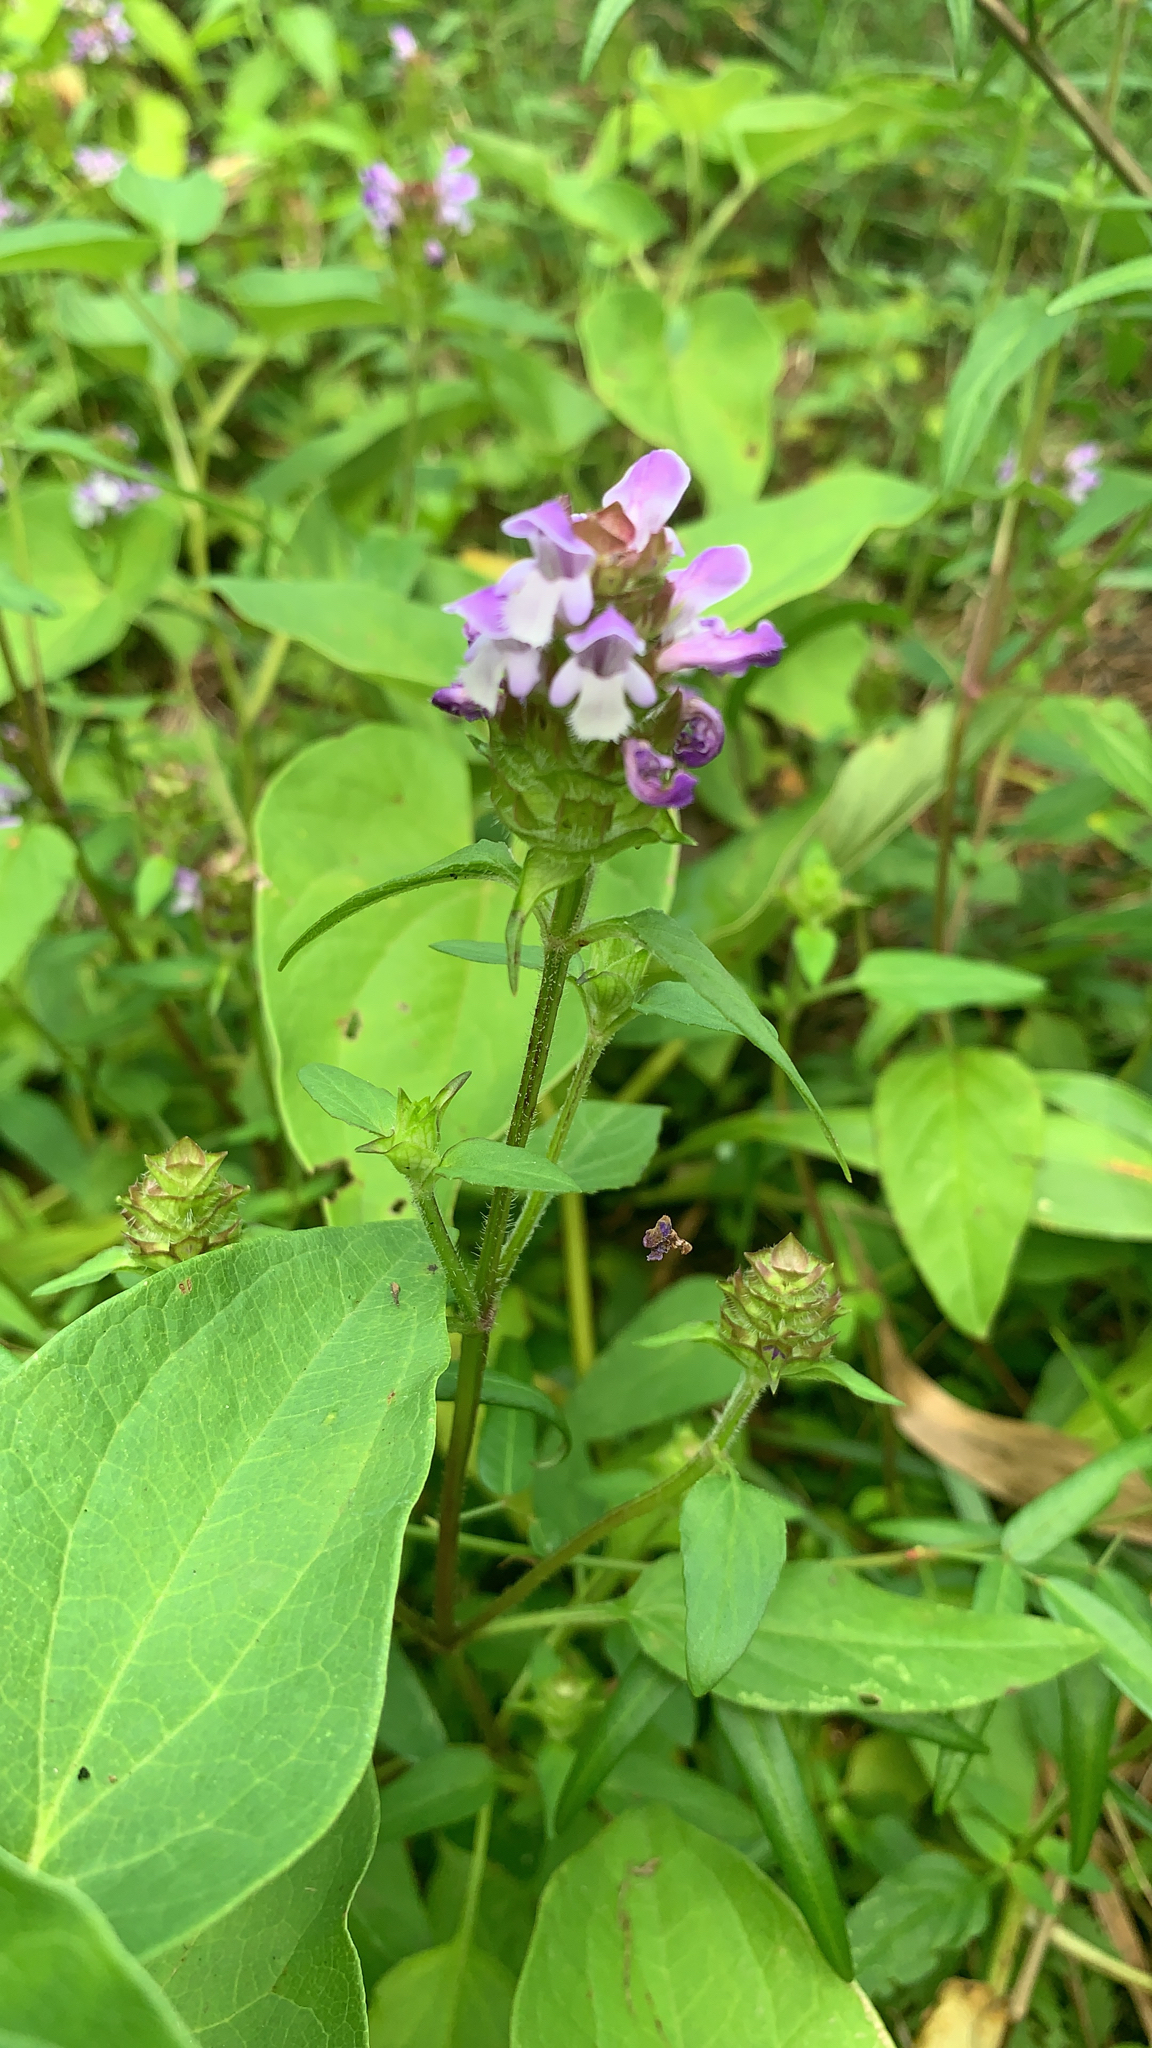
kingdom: Plantae
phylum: Tracheophyta
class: Magnoliopsida
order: Lamiales
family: Lamiaceae
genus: Prunella
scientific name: Prunella vulgaris
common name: Heal-all
